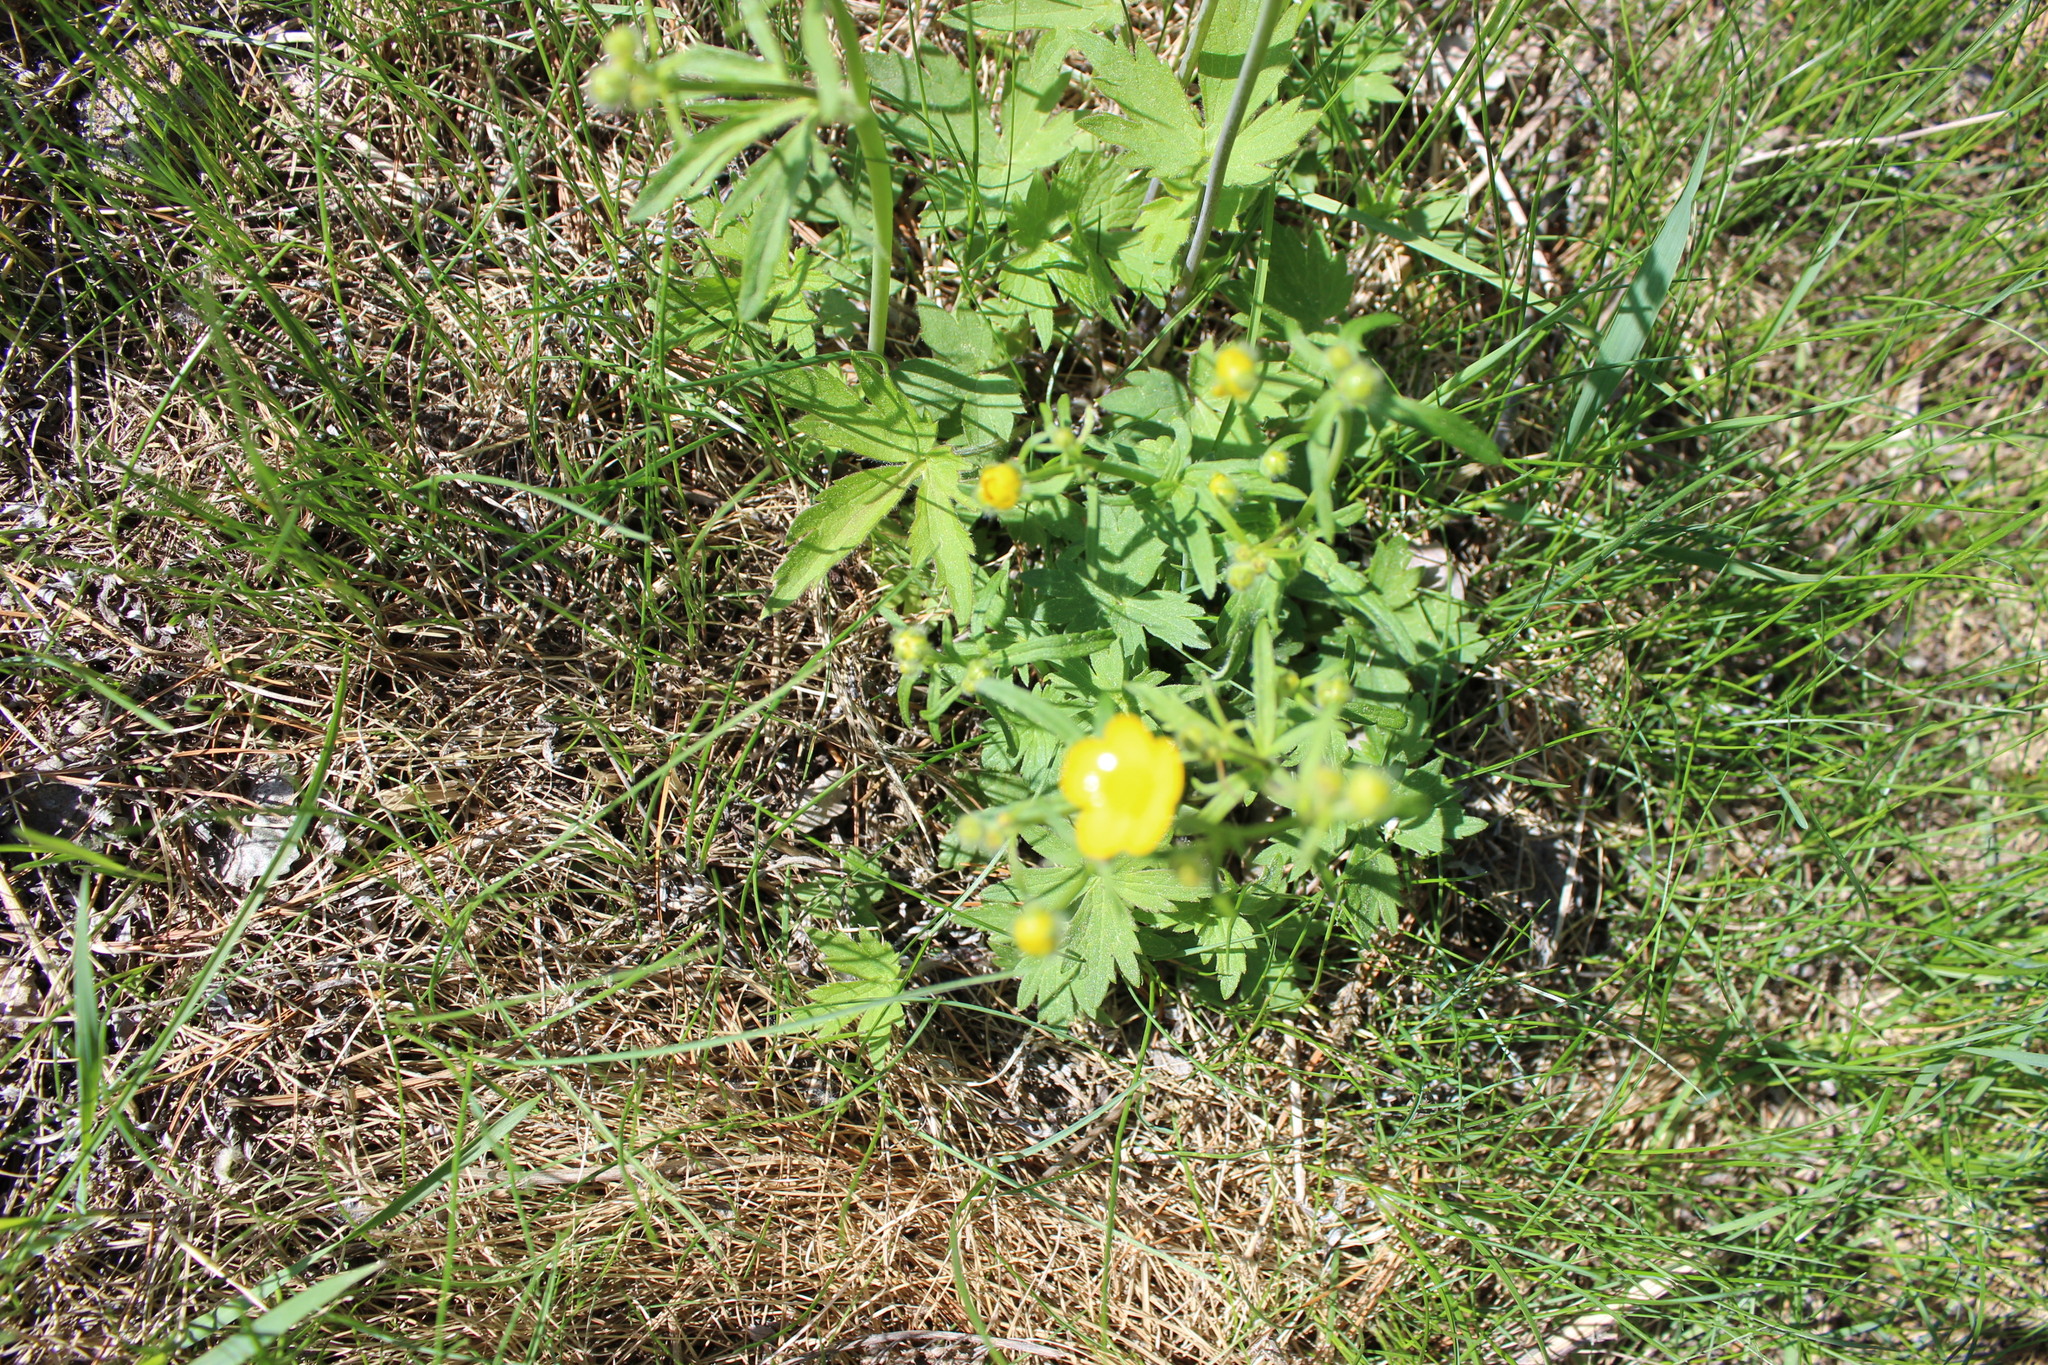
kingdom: Plantae
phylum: Tracheophyta
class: Magnoliopsida
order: Ranunculales
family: Ranunculaceae
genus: Ranunculus
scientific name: Ranunculus propinquus
